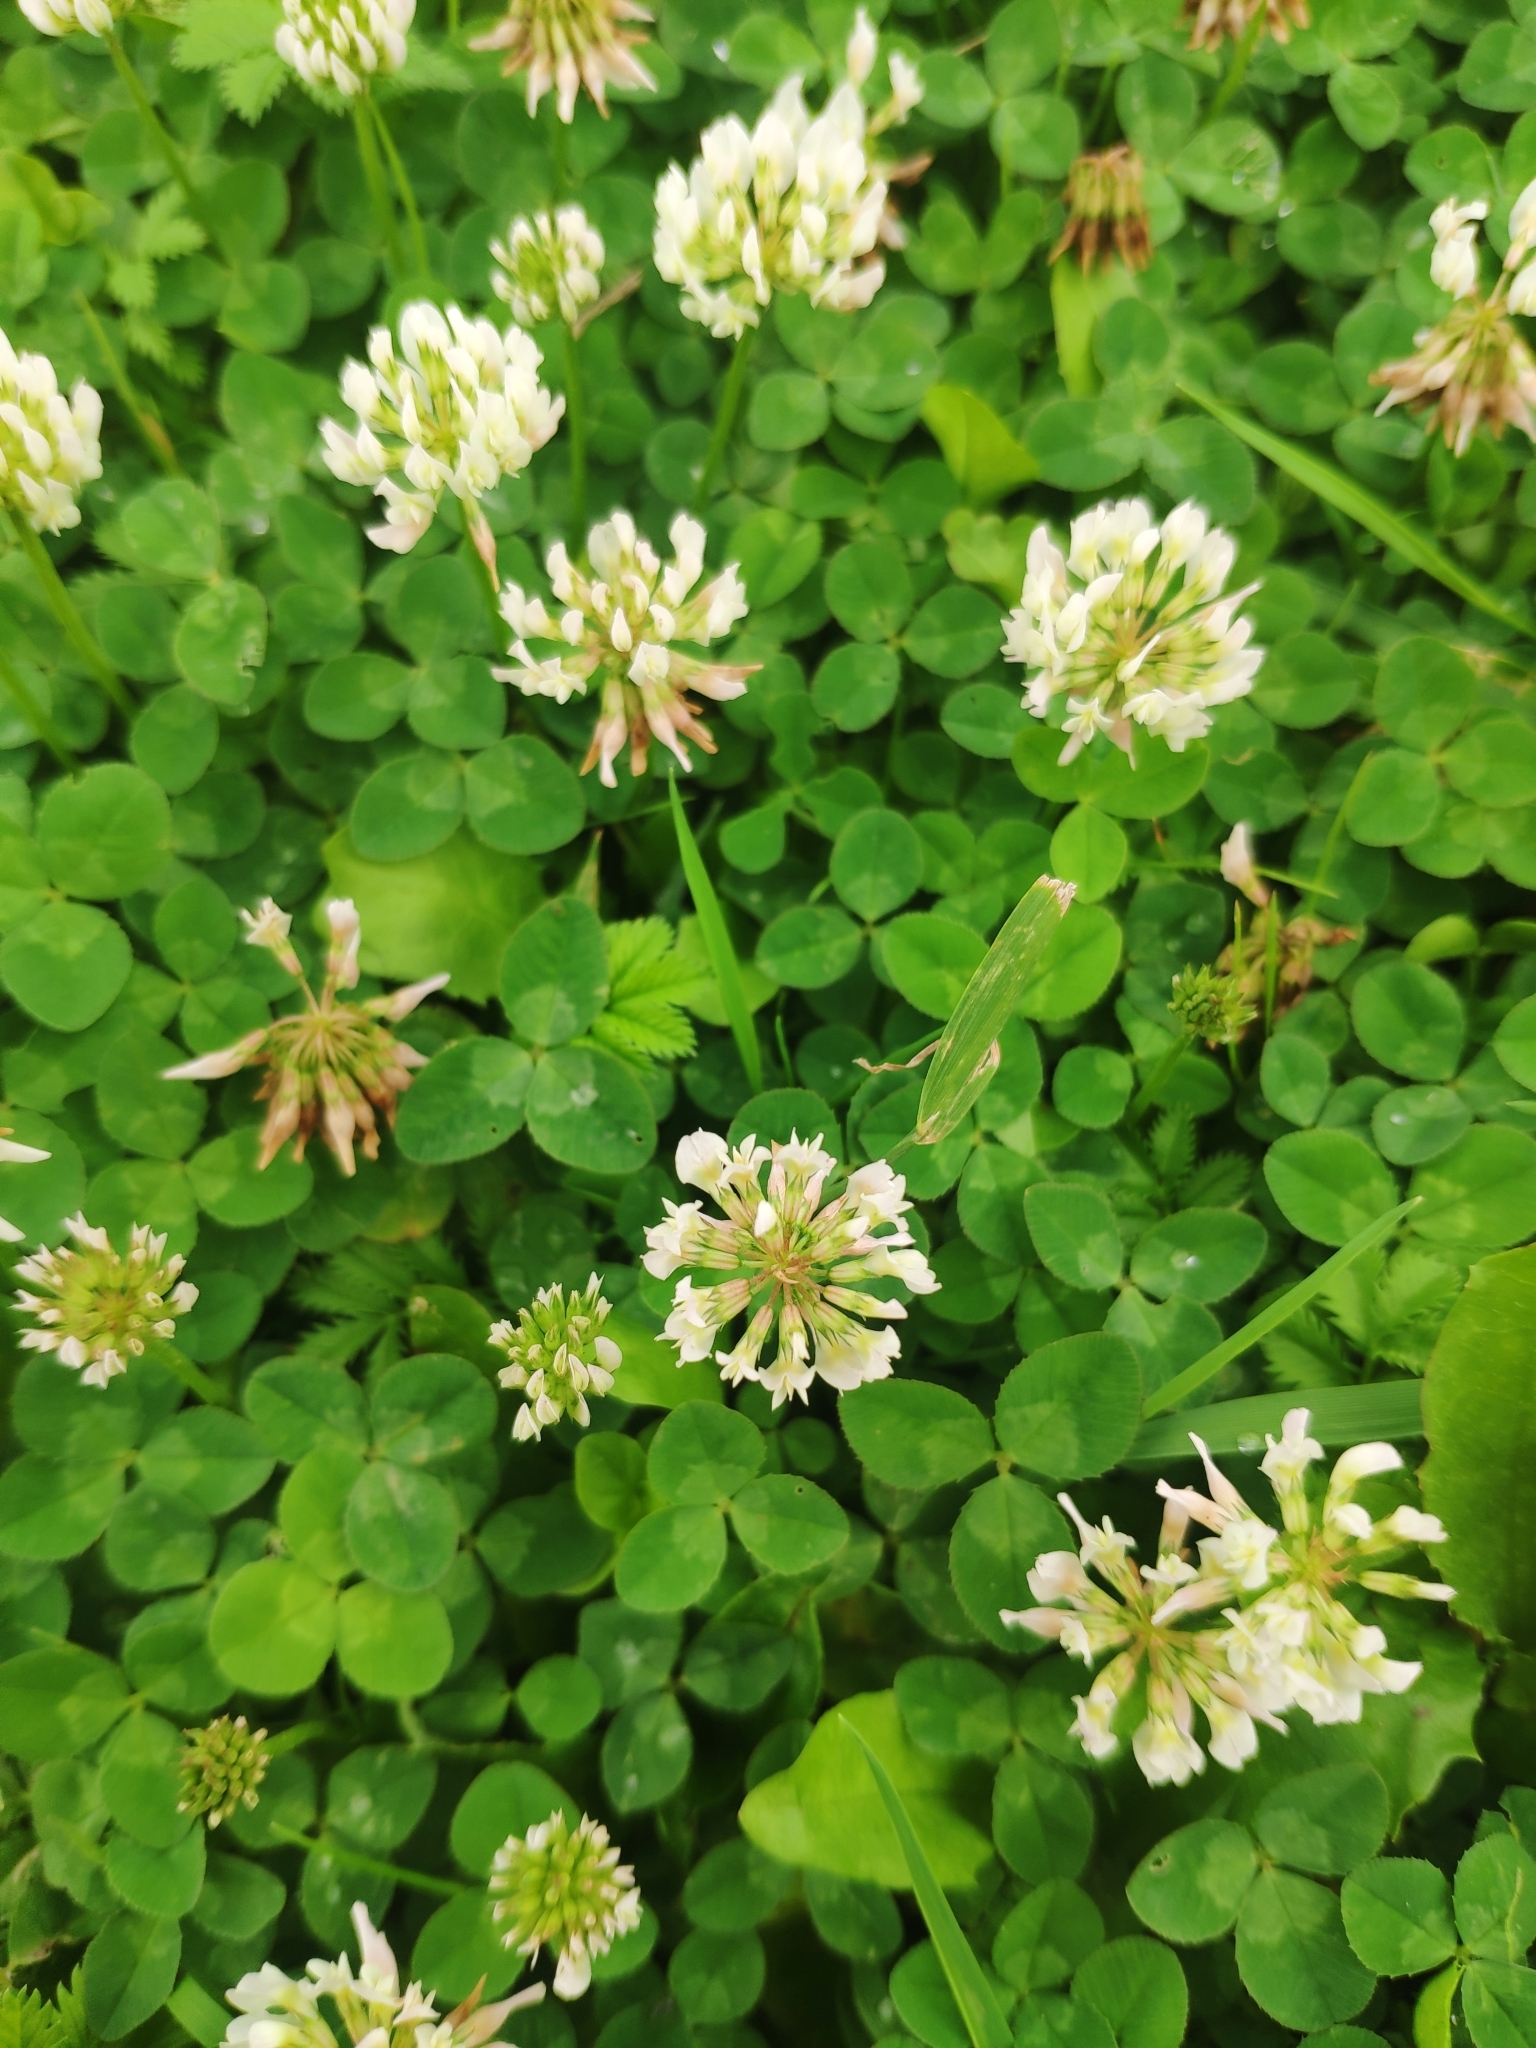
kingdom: Plantae
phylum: Tracheophyta
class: Magnoliopsida
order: Fabales
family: Fabaceae
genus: Trifolium
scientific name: Trifolium repens
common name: White clover
